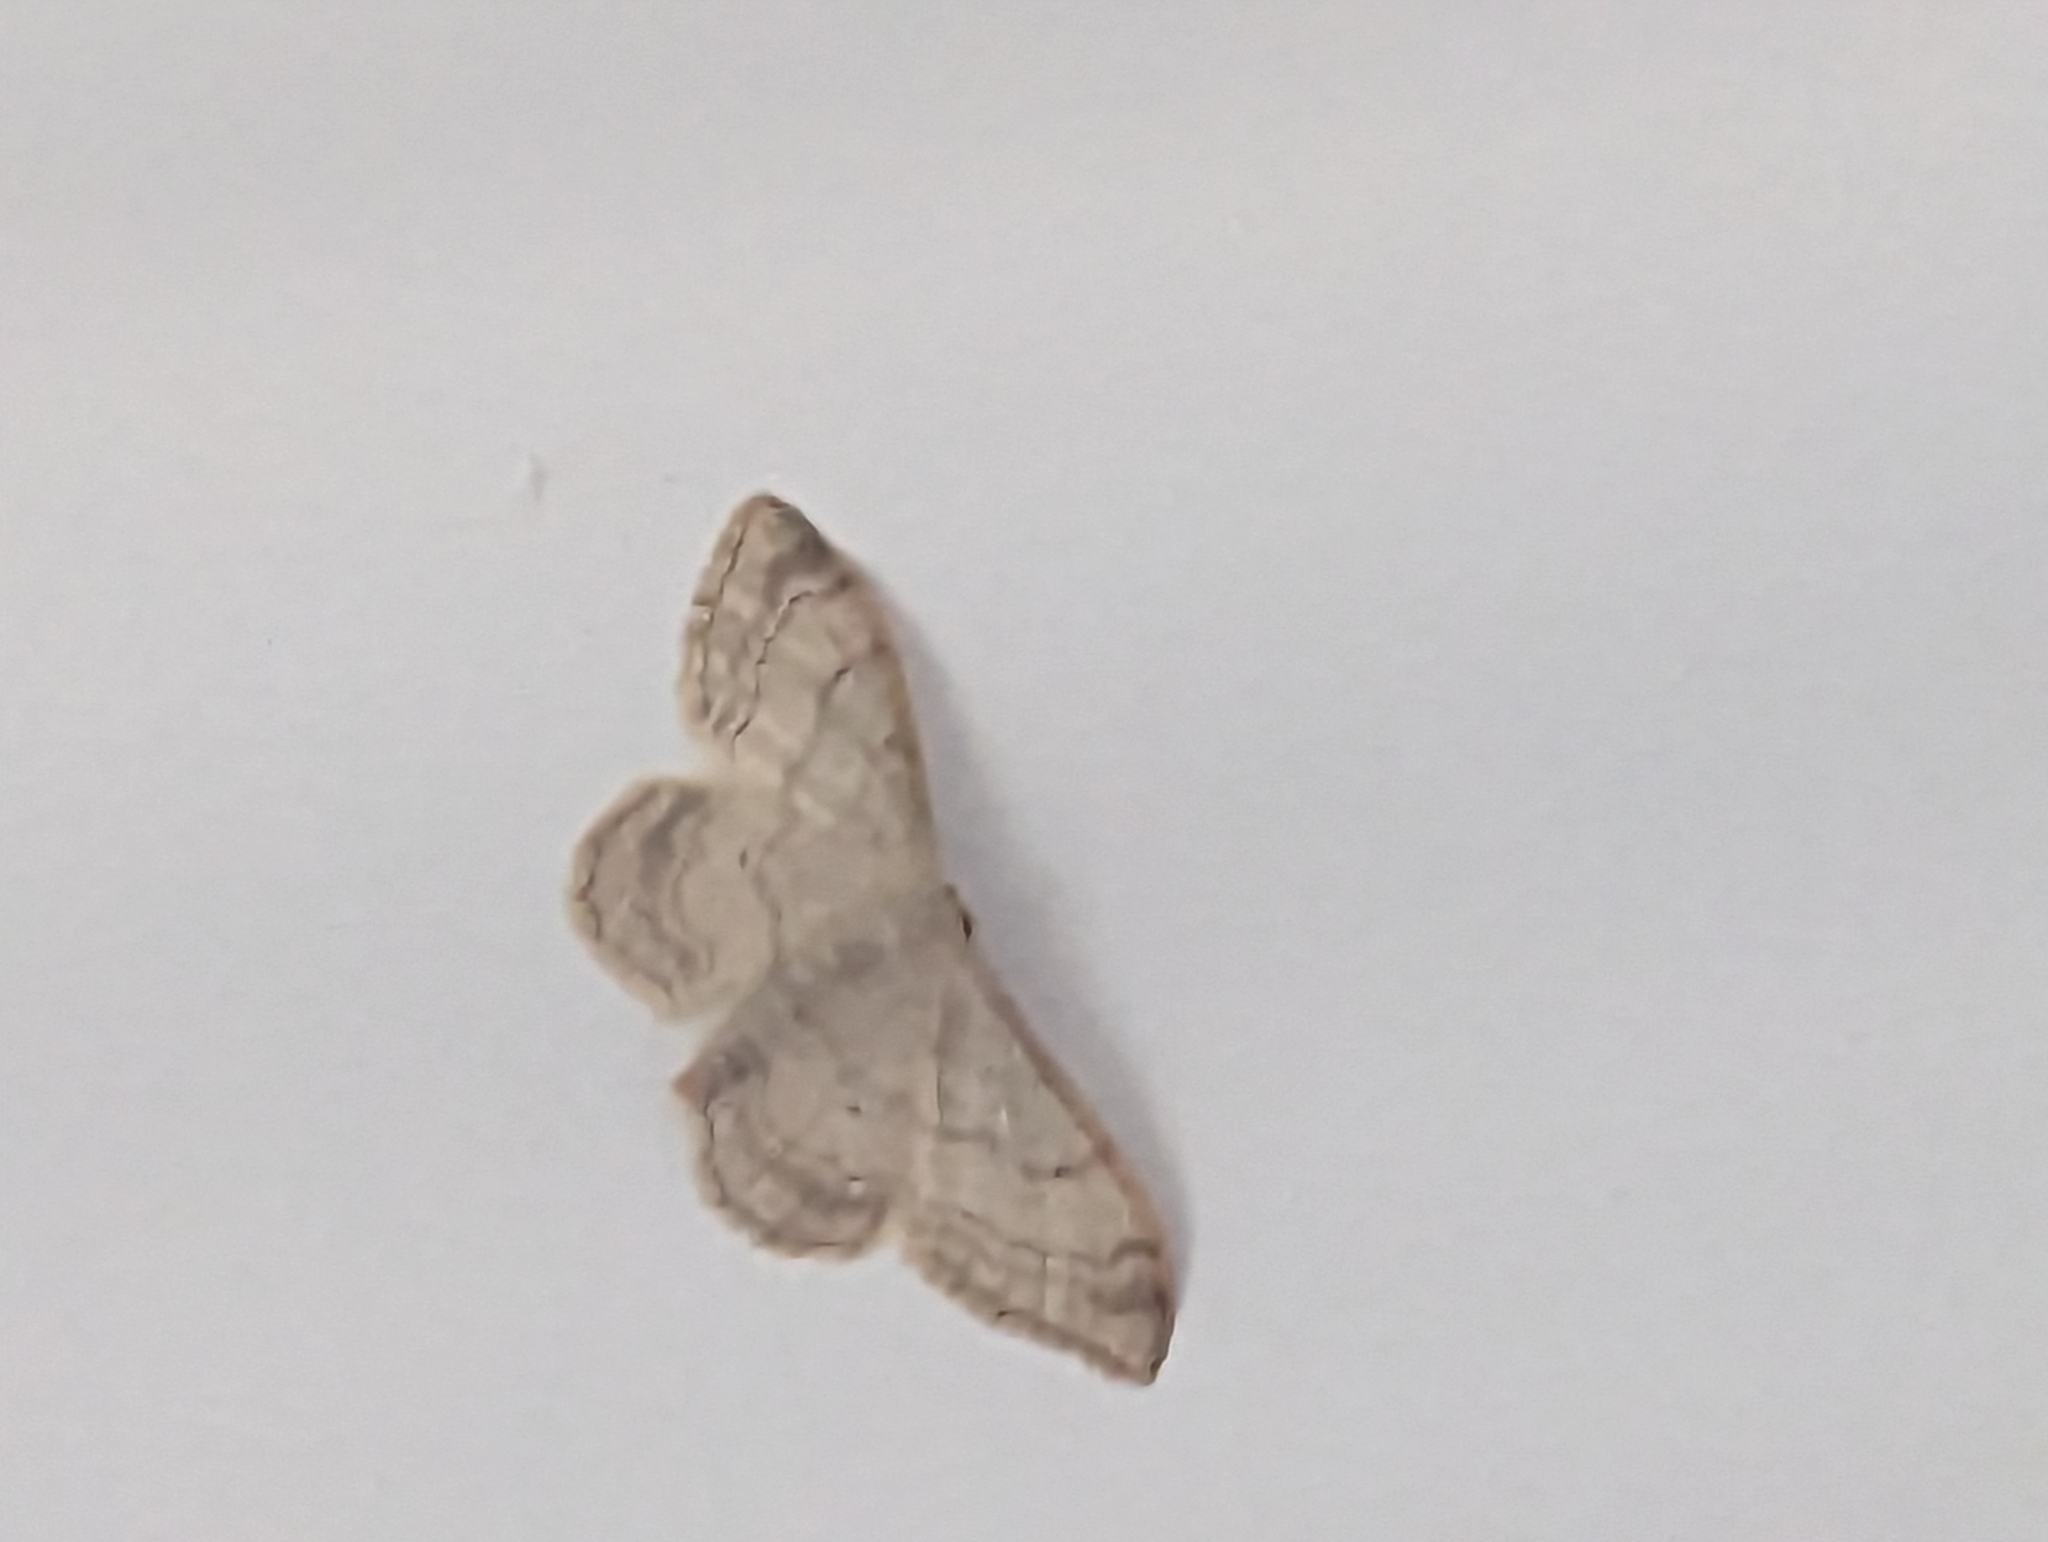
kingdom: Animalia
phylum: Arthropoda
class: Insecta
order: Lepidoptera
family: Geometridae
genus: Idaea
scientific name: Idaea aversata
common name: Riband wave
